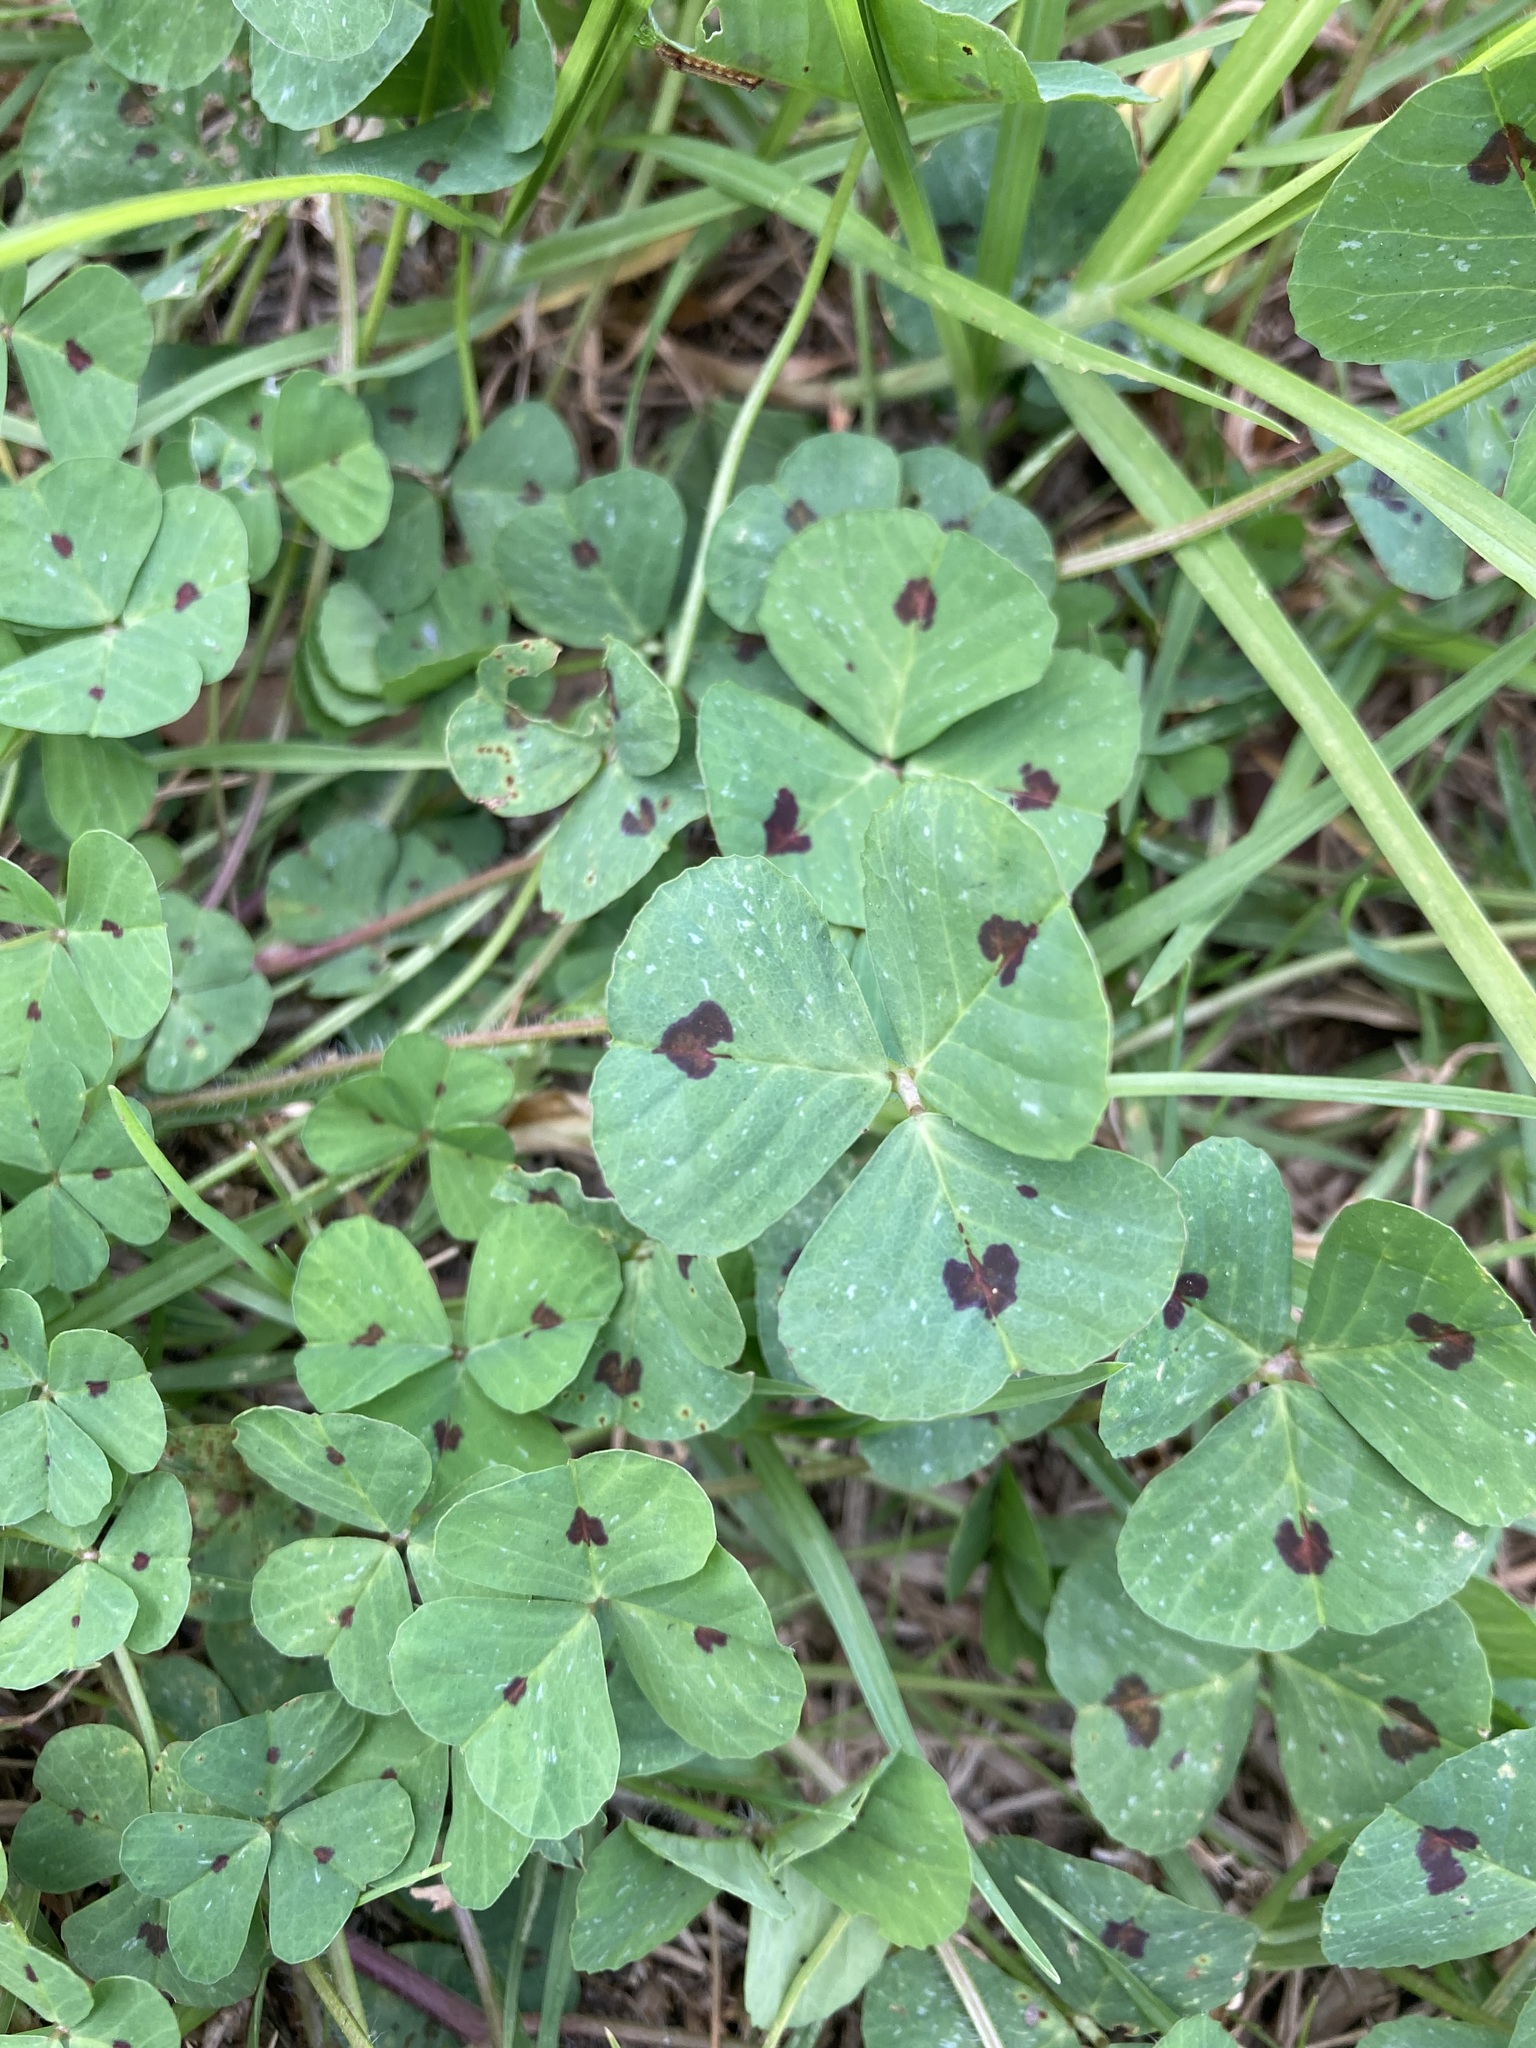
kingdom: Plantae
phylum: Tracheophyta
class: Magnoliopsida
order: Fabales
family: Fabaceae
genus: Medicago
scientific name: Medicago arabica
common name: Spotted medick
